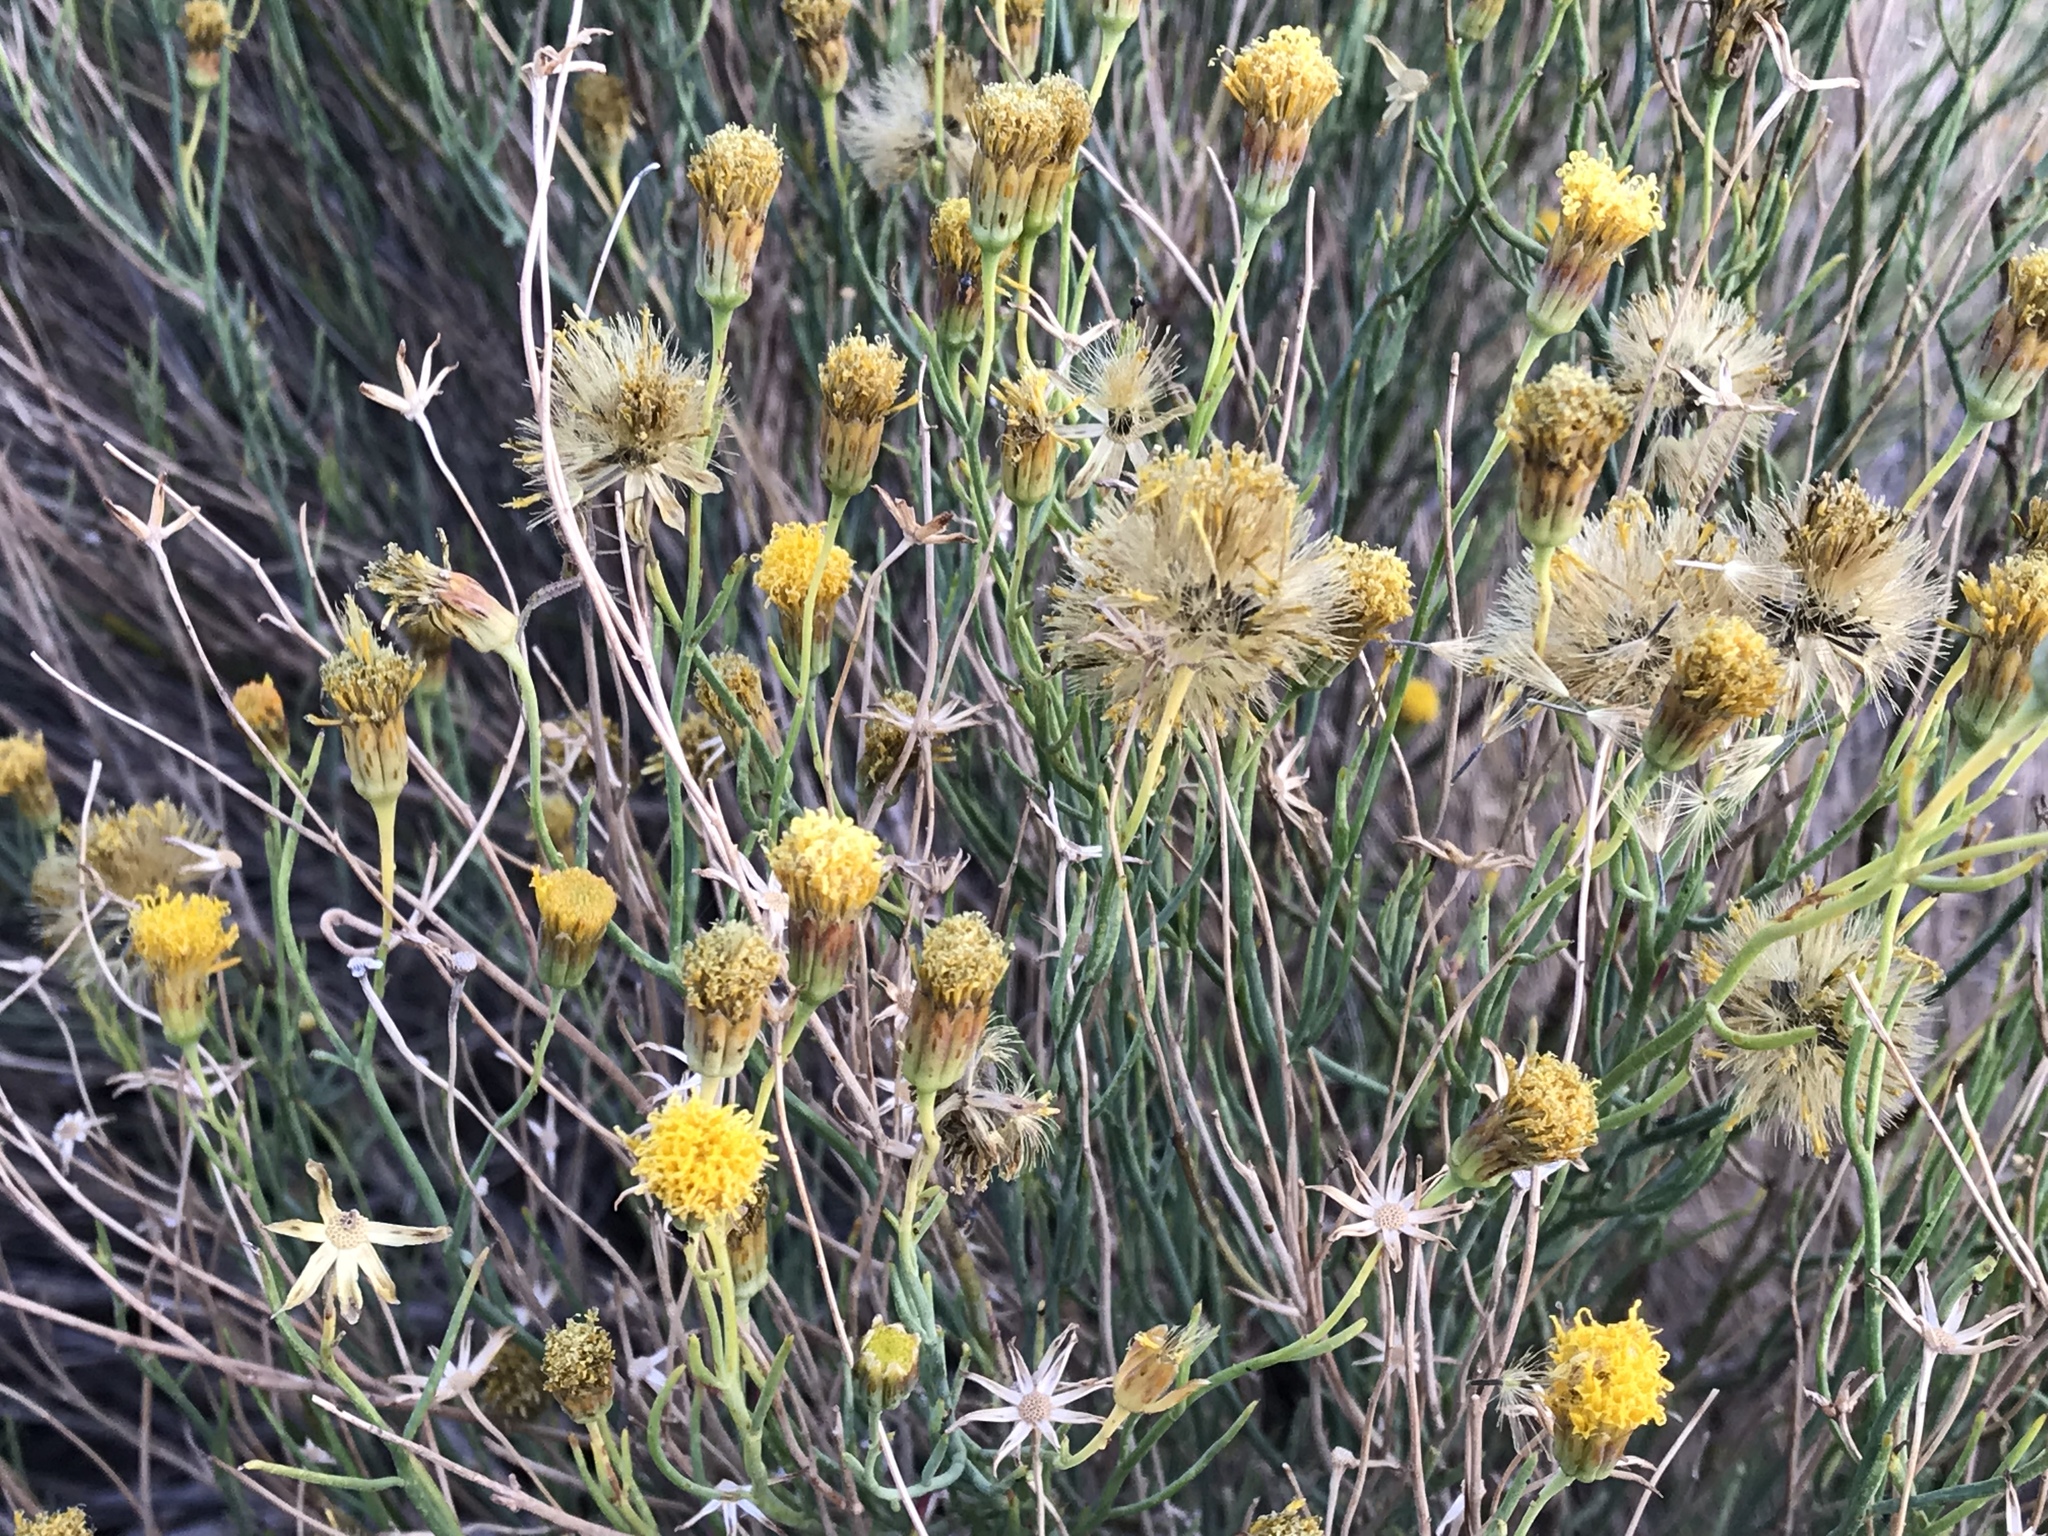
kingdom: Plantae
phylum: Tracheophyta
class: Magnoliopsida
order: Asterales
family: Asteraceae
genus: Porophyllum
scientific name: Porophyllum scoparium
